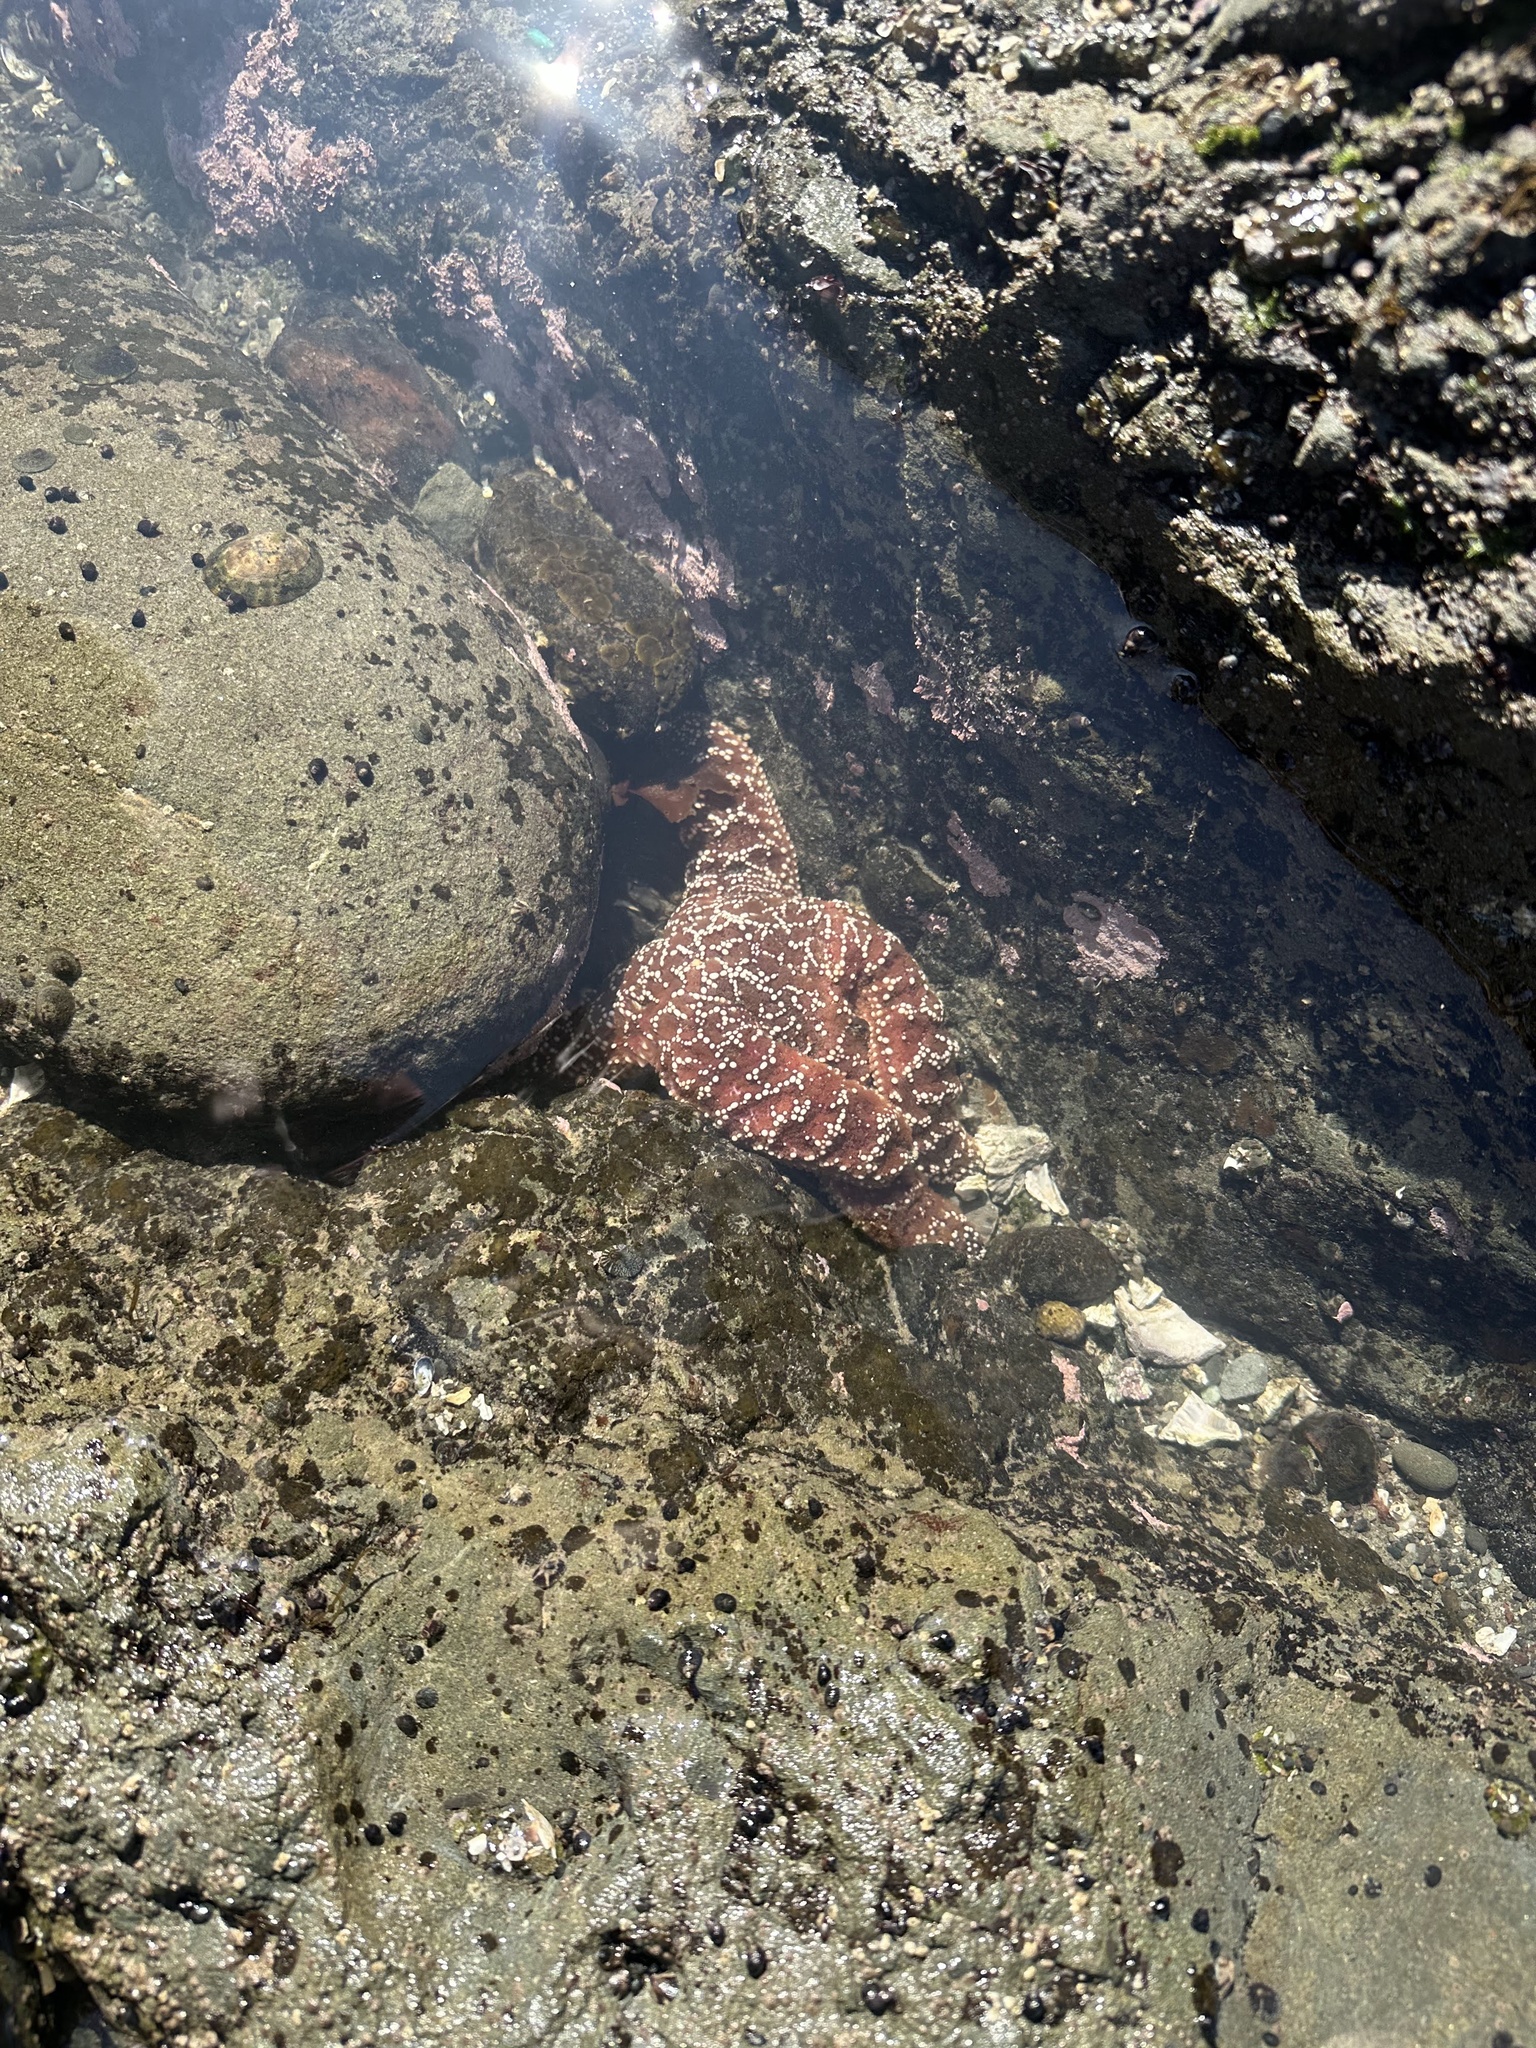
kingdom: Animalia
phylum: Echinodermata
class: Asteroidea
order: Forcipulatida
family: Asteriidae
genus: Pisaster
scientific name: Pisaster ochraceus
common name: Ochre stars
